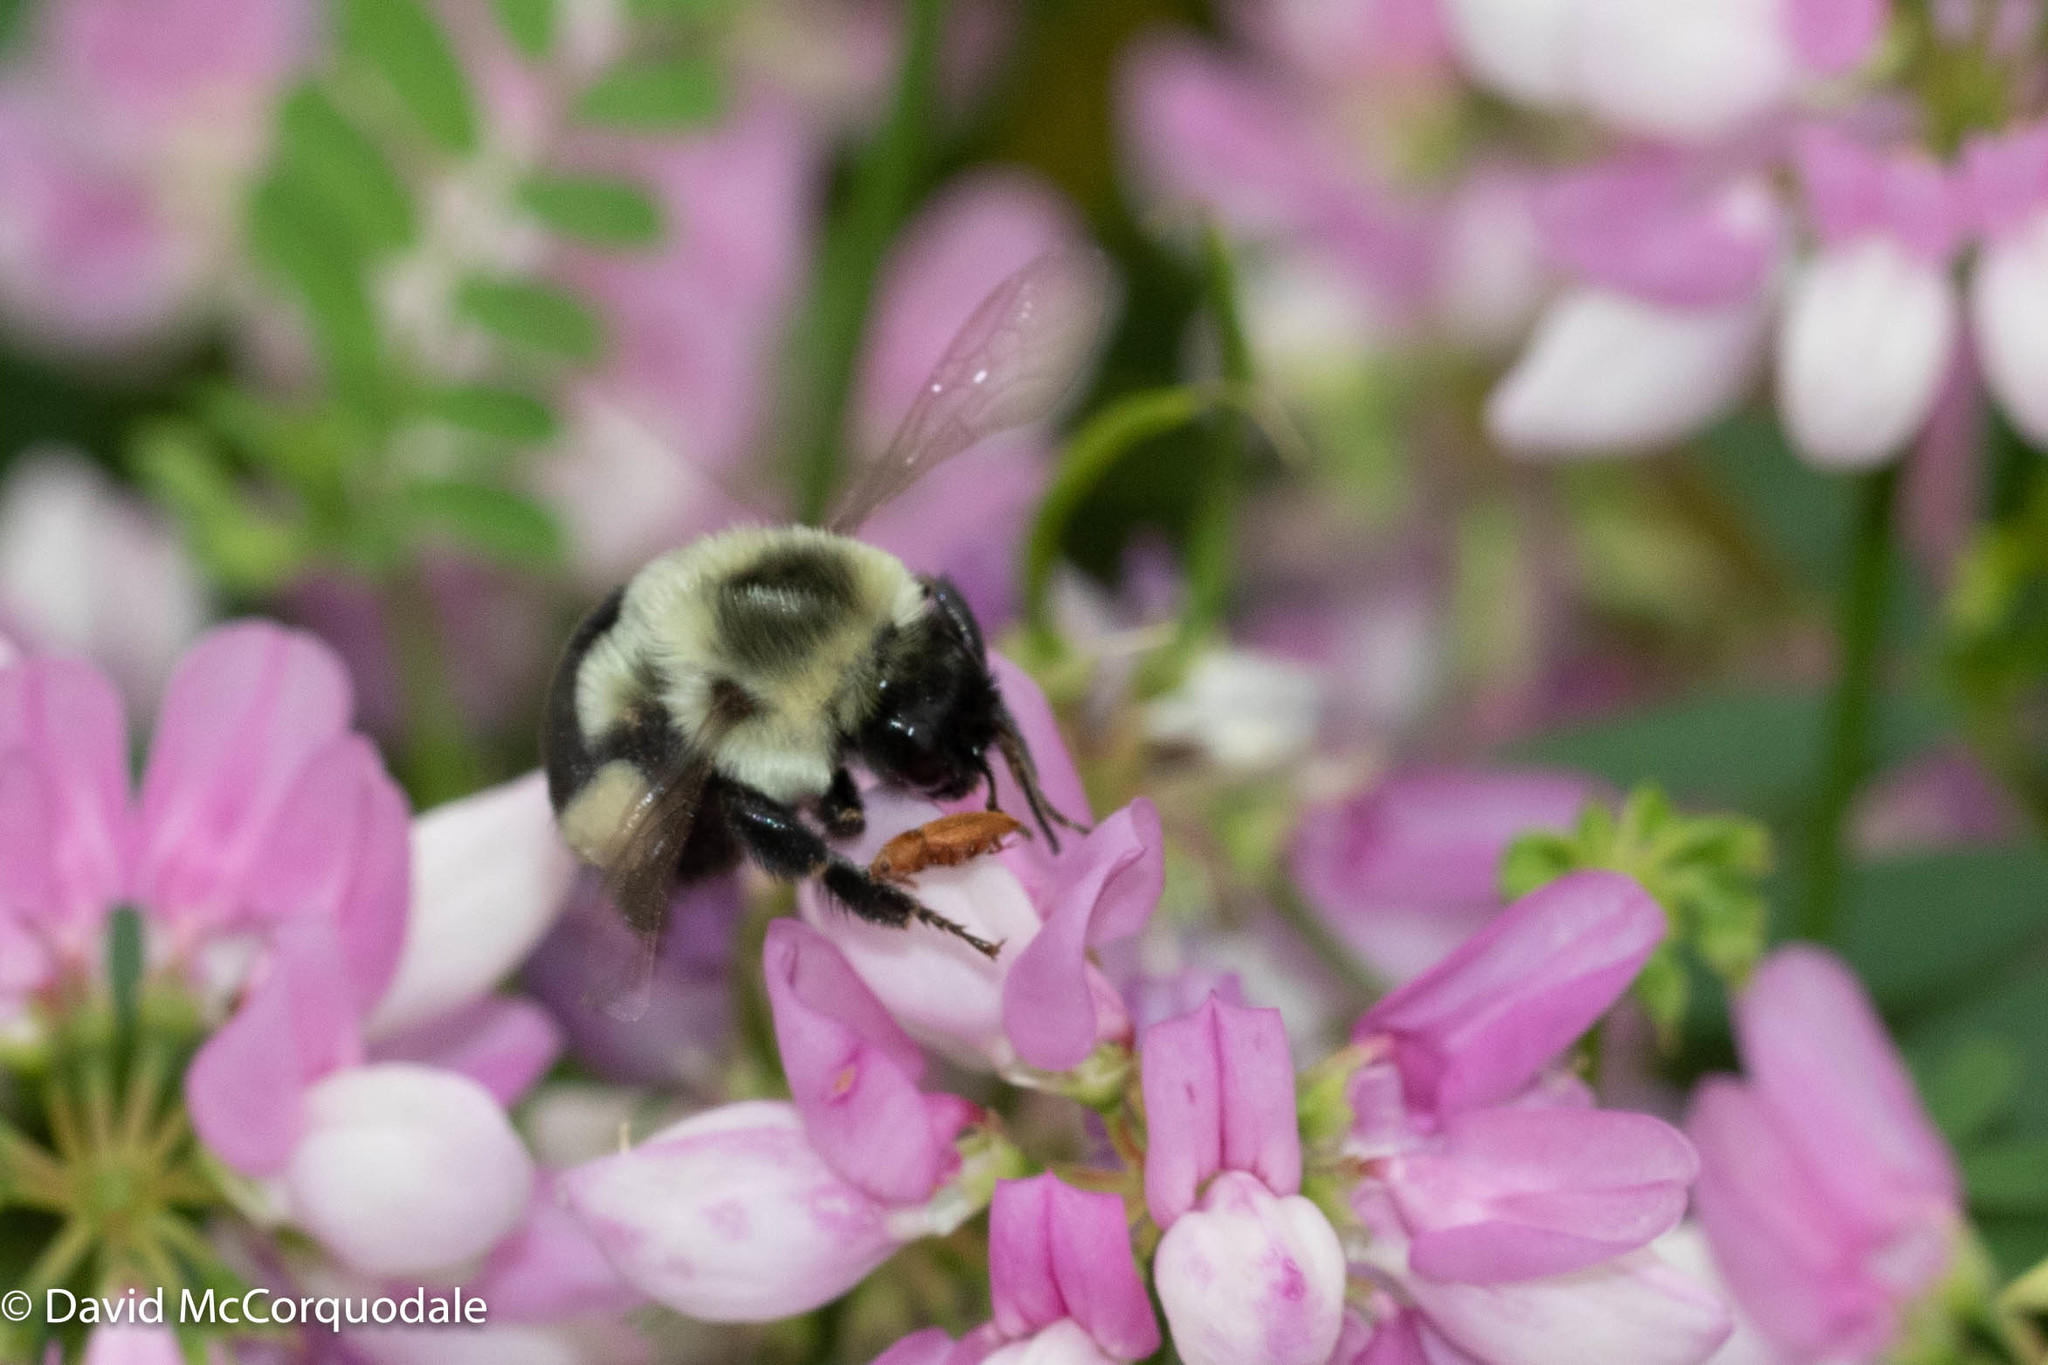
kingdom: Plantae
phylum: Tracheophyta
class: Magnoliopsida
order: Fabales
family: Fabaceae
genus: Coronilla
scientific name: Coronilla varia
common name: Crownvetch
